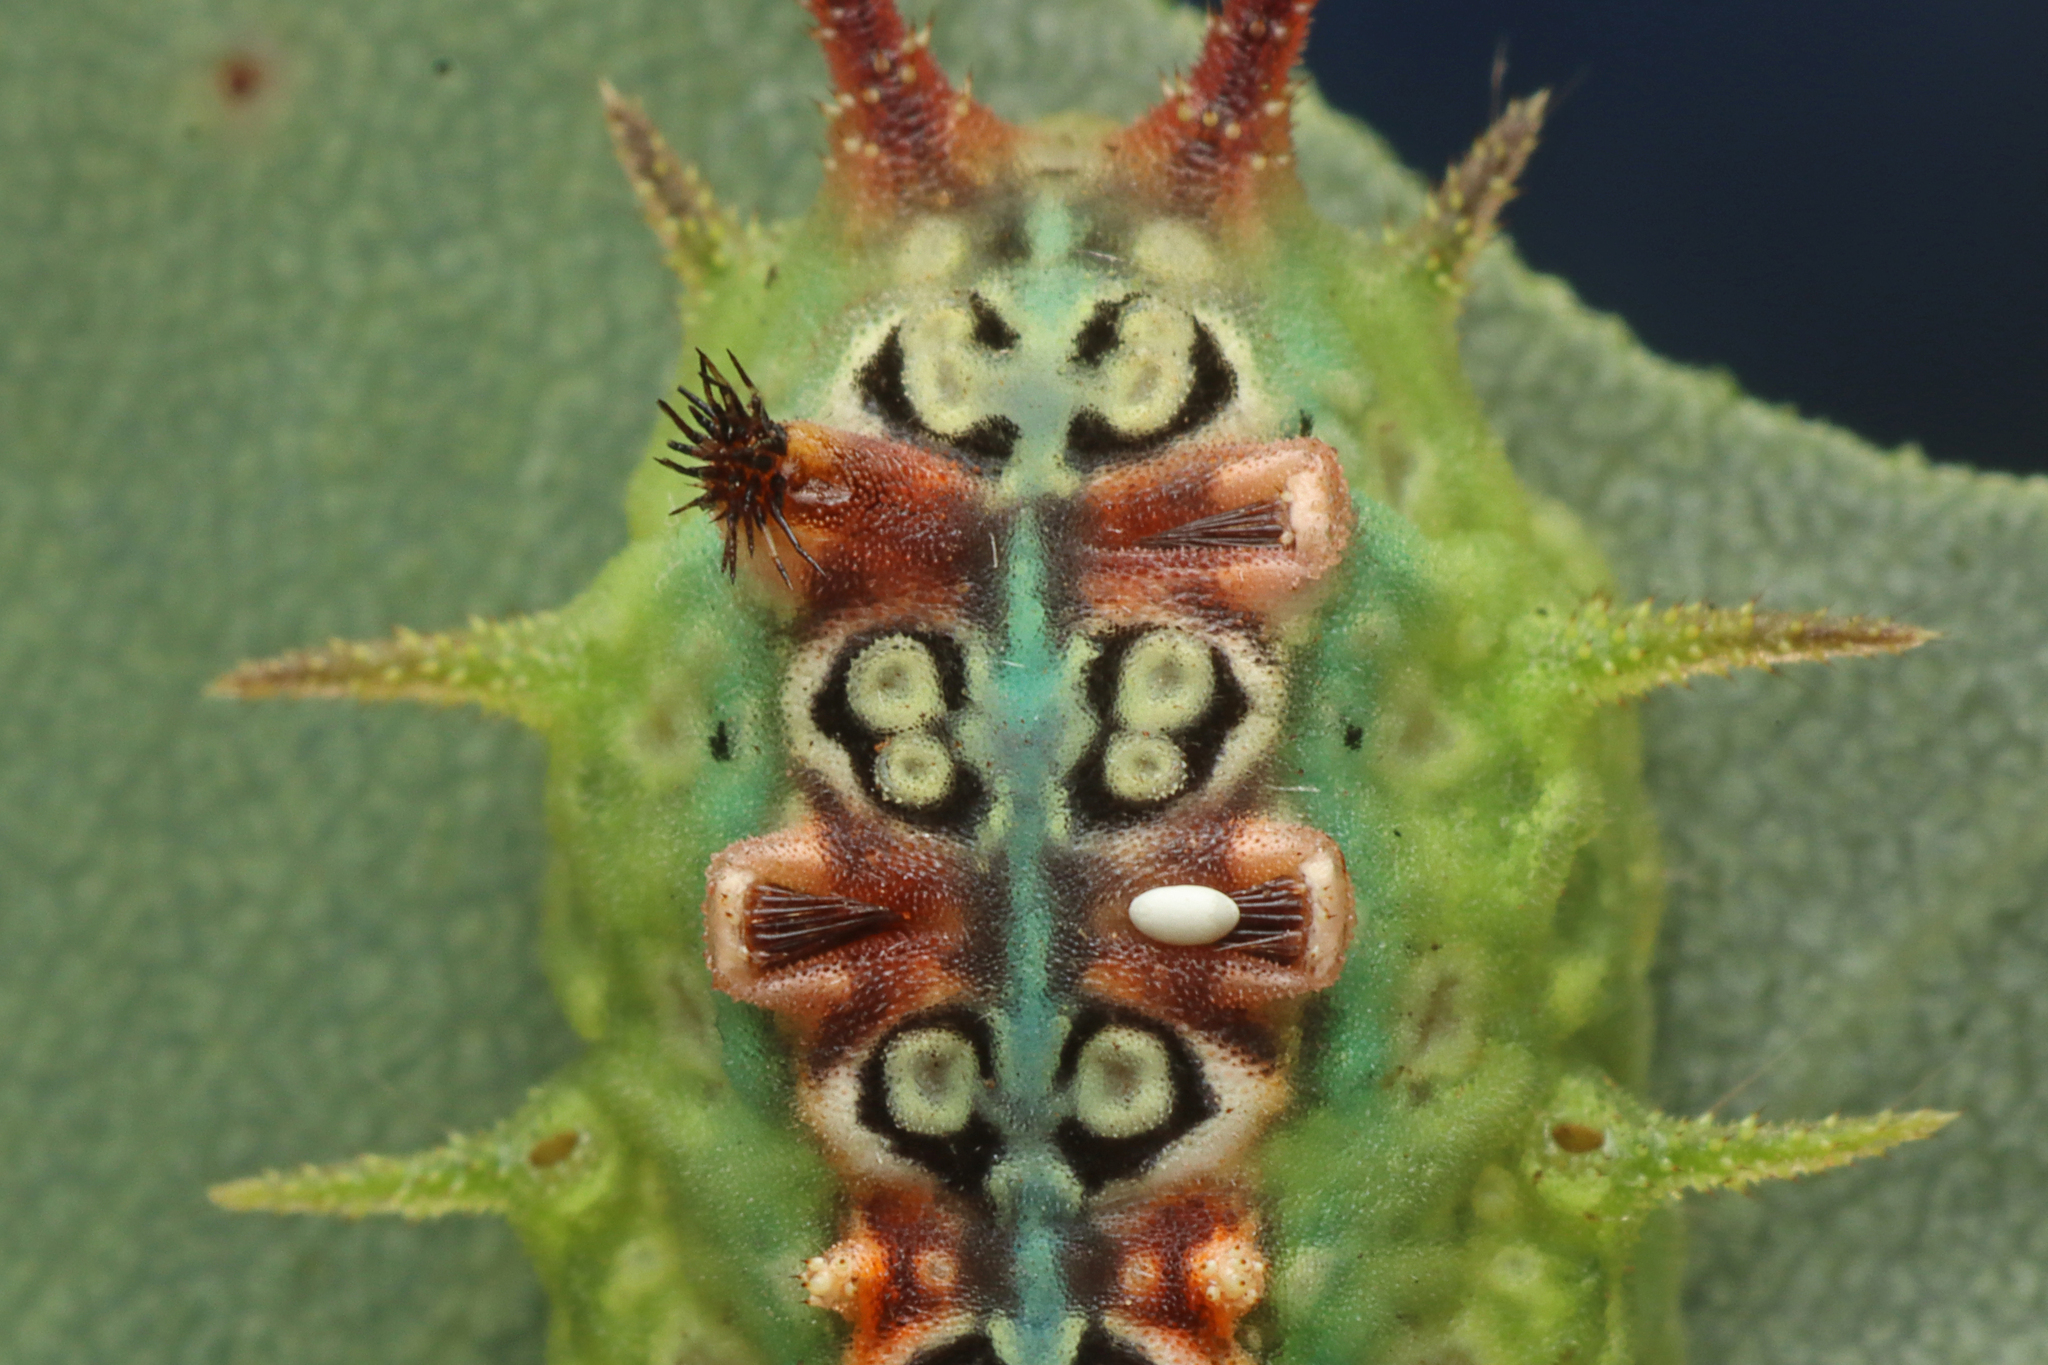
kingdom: Animalia
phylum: Arthropoda
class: Insecta
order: Lepidoptera
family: Limacodidae
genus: Doratifera
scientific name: Doratifera quadriguttata
